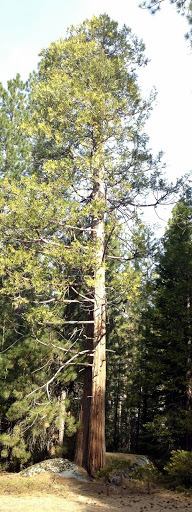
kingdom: Plantae
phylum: Tracheophyta
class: Pinopsida
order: Pinales
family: Cupressaceae
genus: Calocedrus
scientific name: Calocedrus decurrens
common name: Californian incense-cedar
